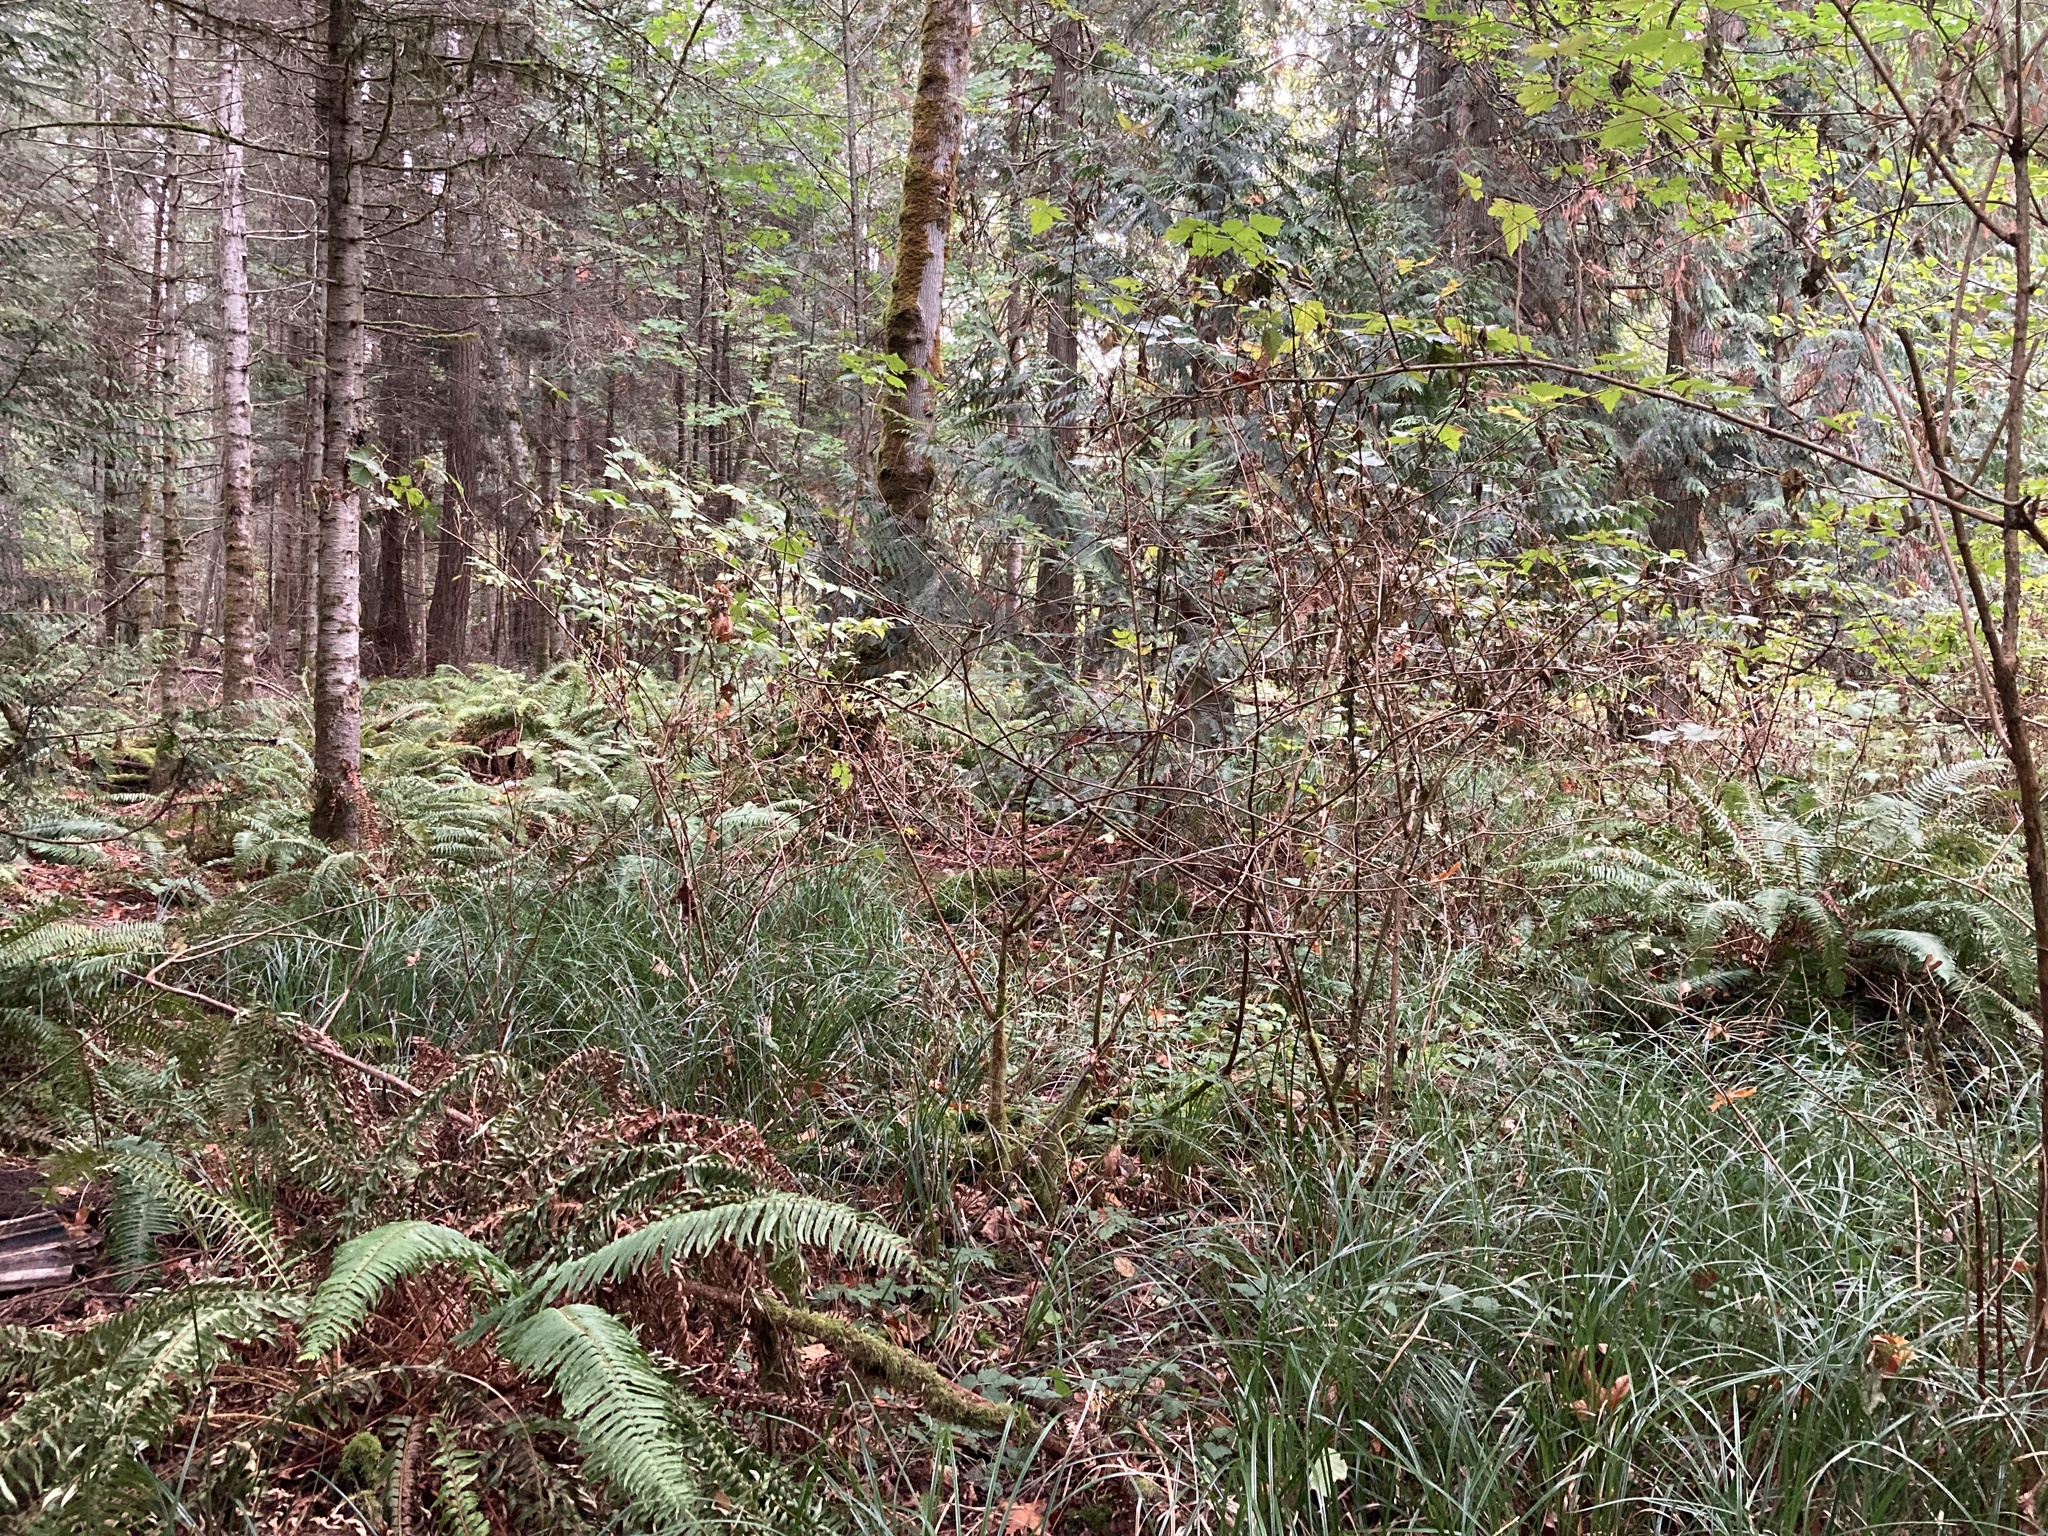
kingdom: Plantae
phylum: Tracheophyta
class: Liliopsida
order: Poales
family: Cyperaceae
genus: Carex
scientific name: Carex obnupta
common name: Slough sedge
